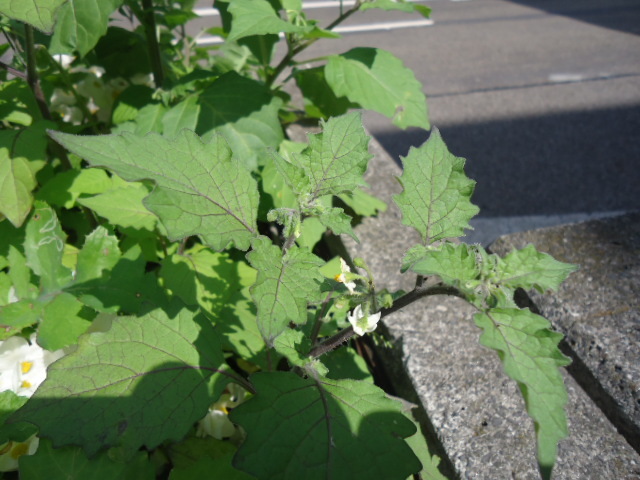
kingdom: Plantae
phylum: Tracheophyta
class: Magnoliopsida
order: Solanales
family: Solanaceae
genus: Solanum
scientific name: Solanum decipiens
